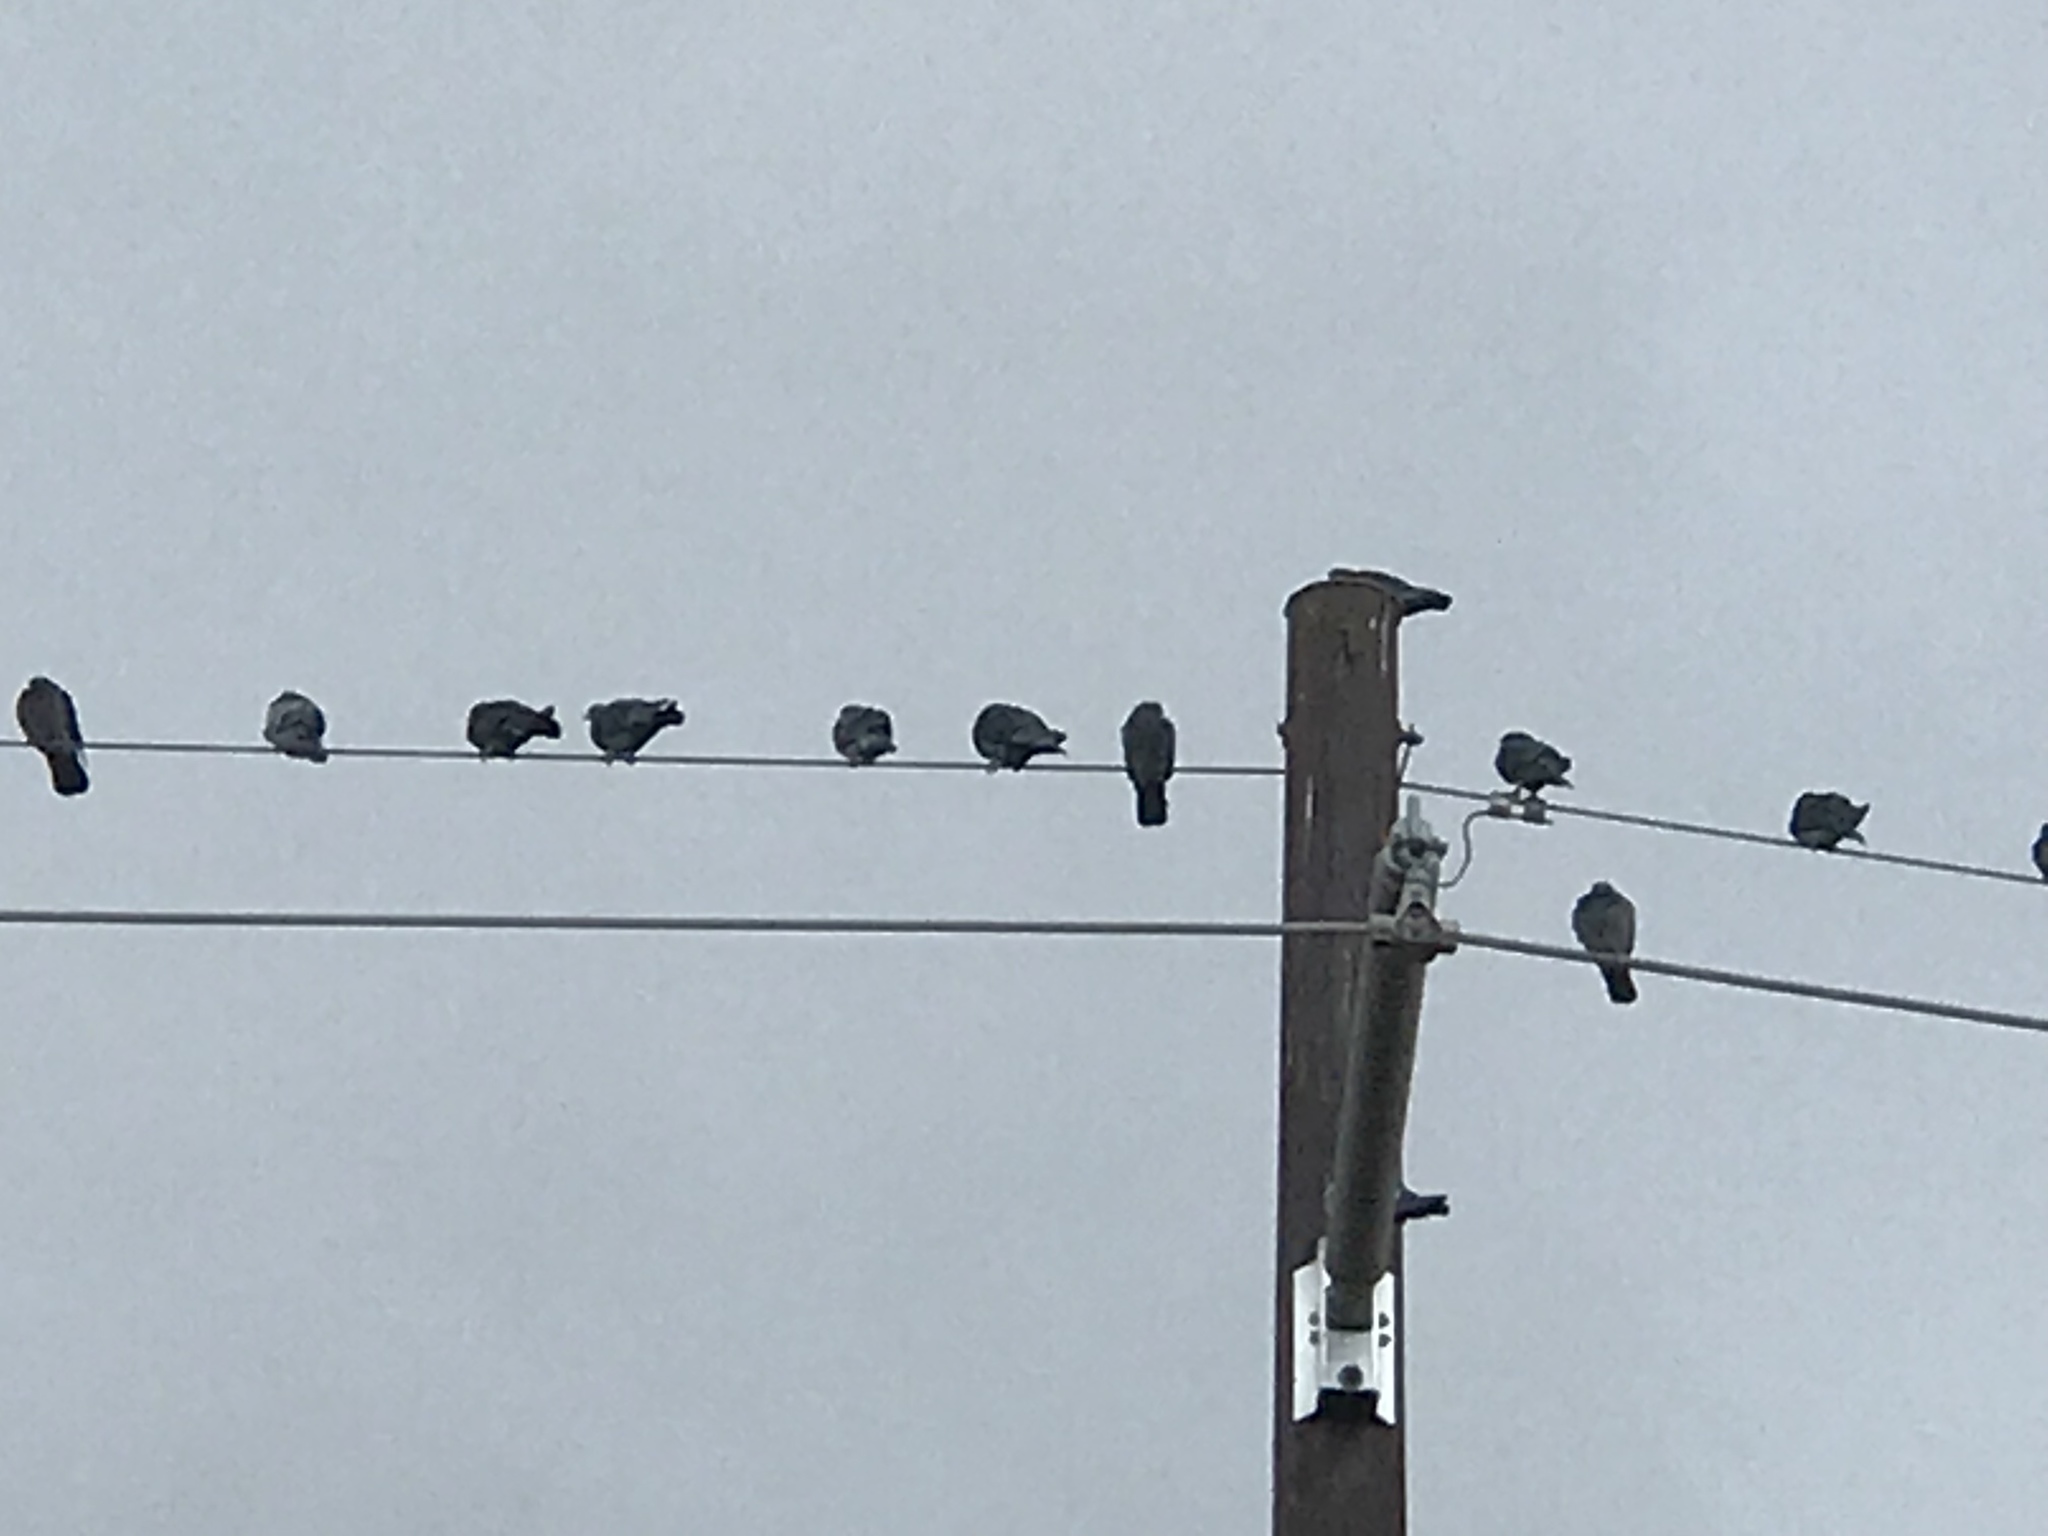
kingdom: Animalia
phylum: Chordata
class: Aves
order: Columbiformes
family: Columbidae
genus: Columba
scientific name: Columba livia
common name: Rock pigeon
